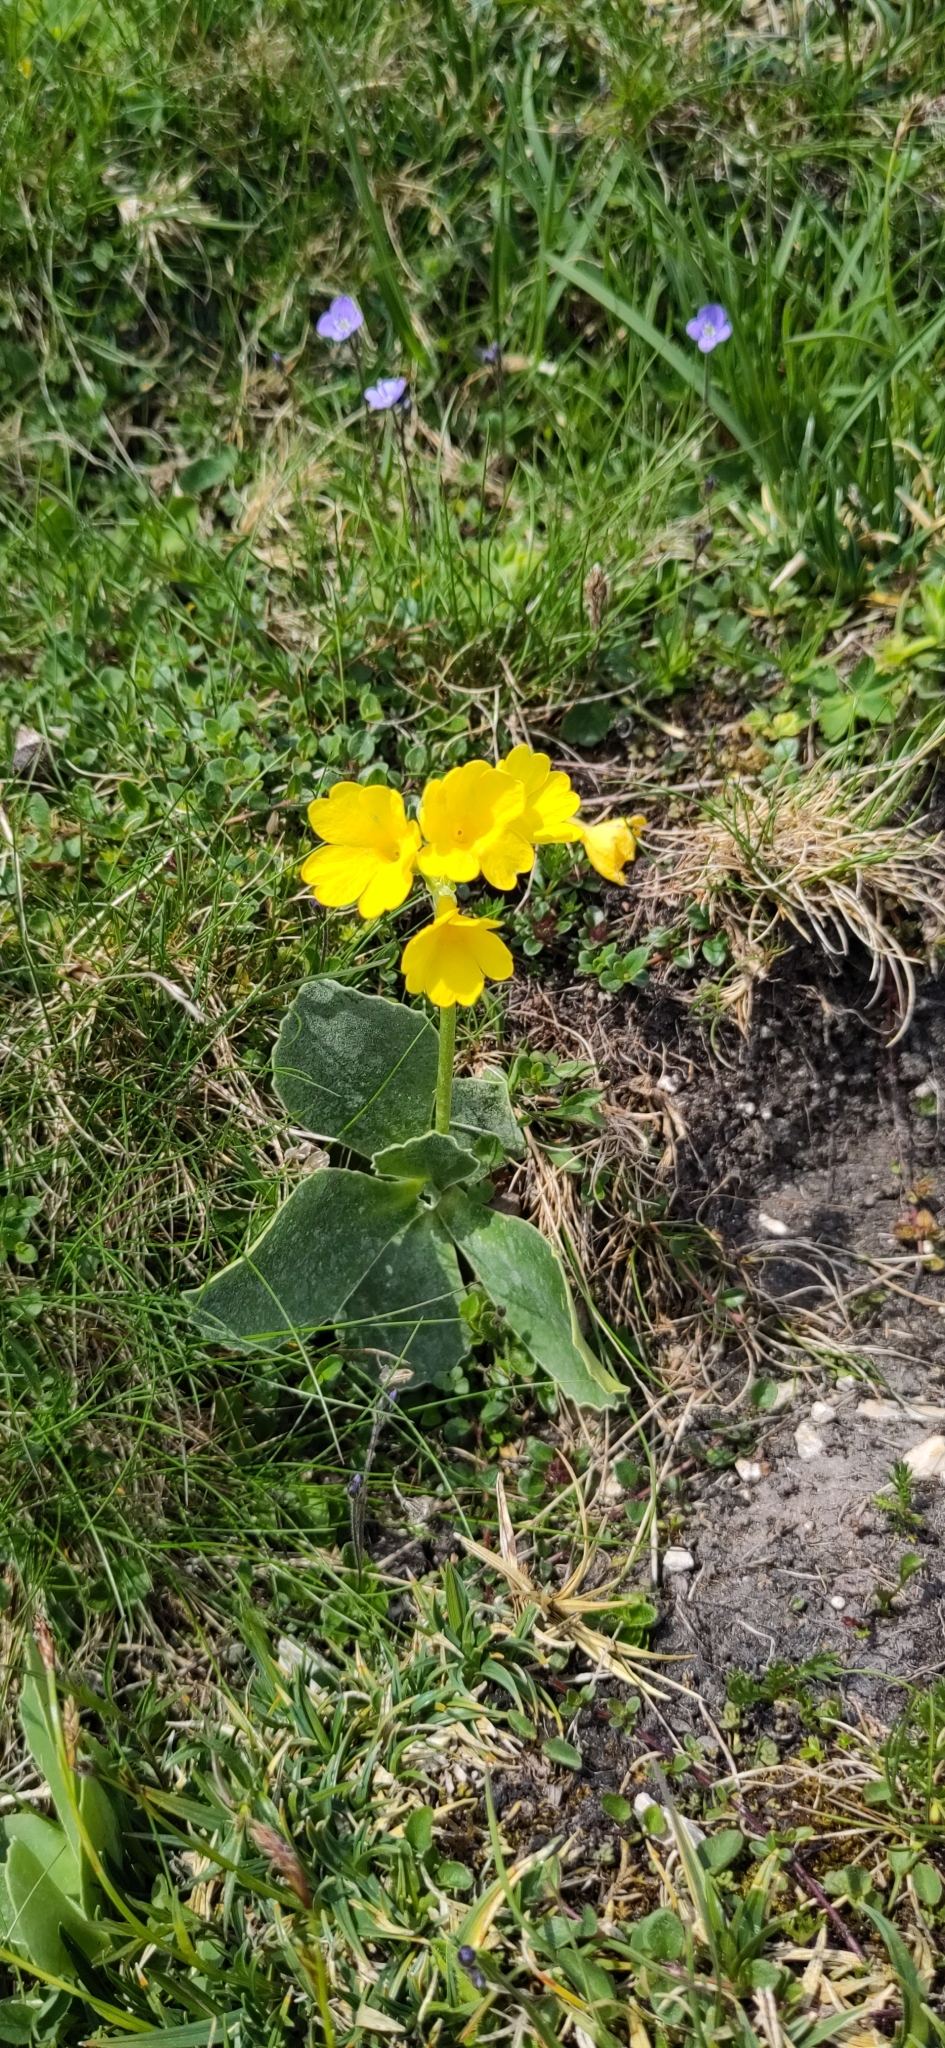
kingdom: Plantae
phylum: Tracheophyta
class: Magnoliopsida
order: Ericales
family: Primulaceae
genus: Primula
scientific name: Primula auricula
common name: Auricula
